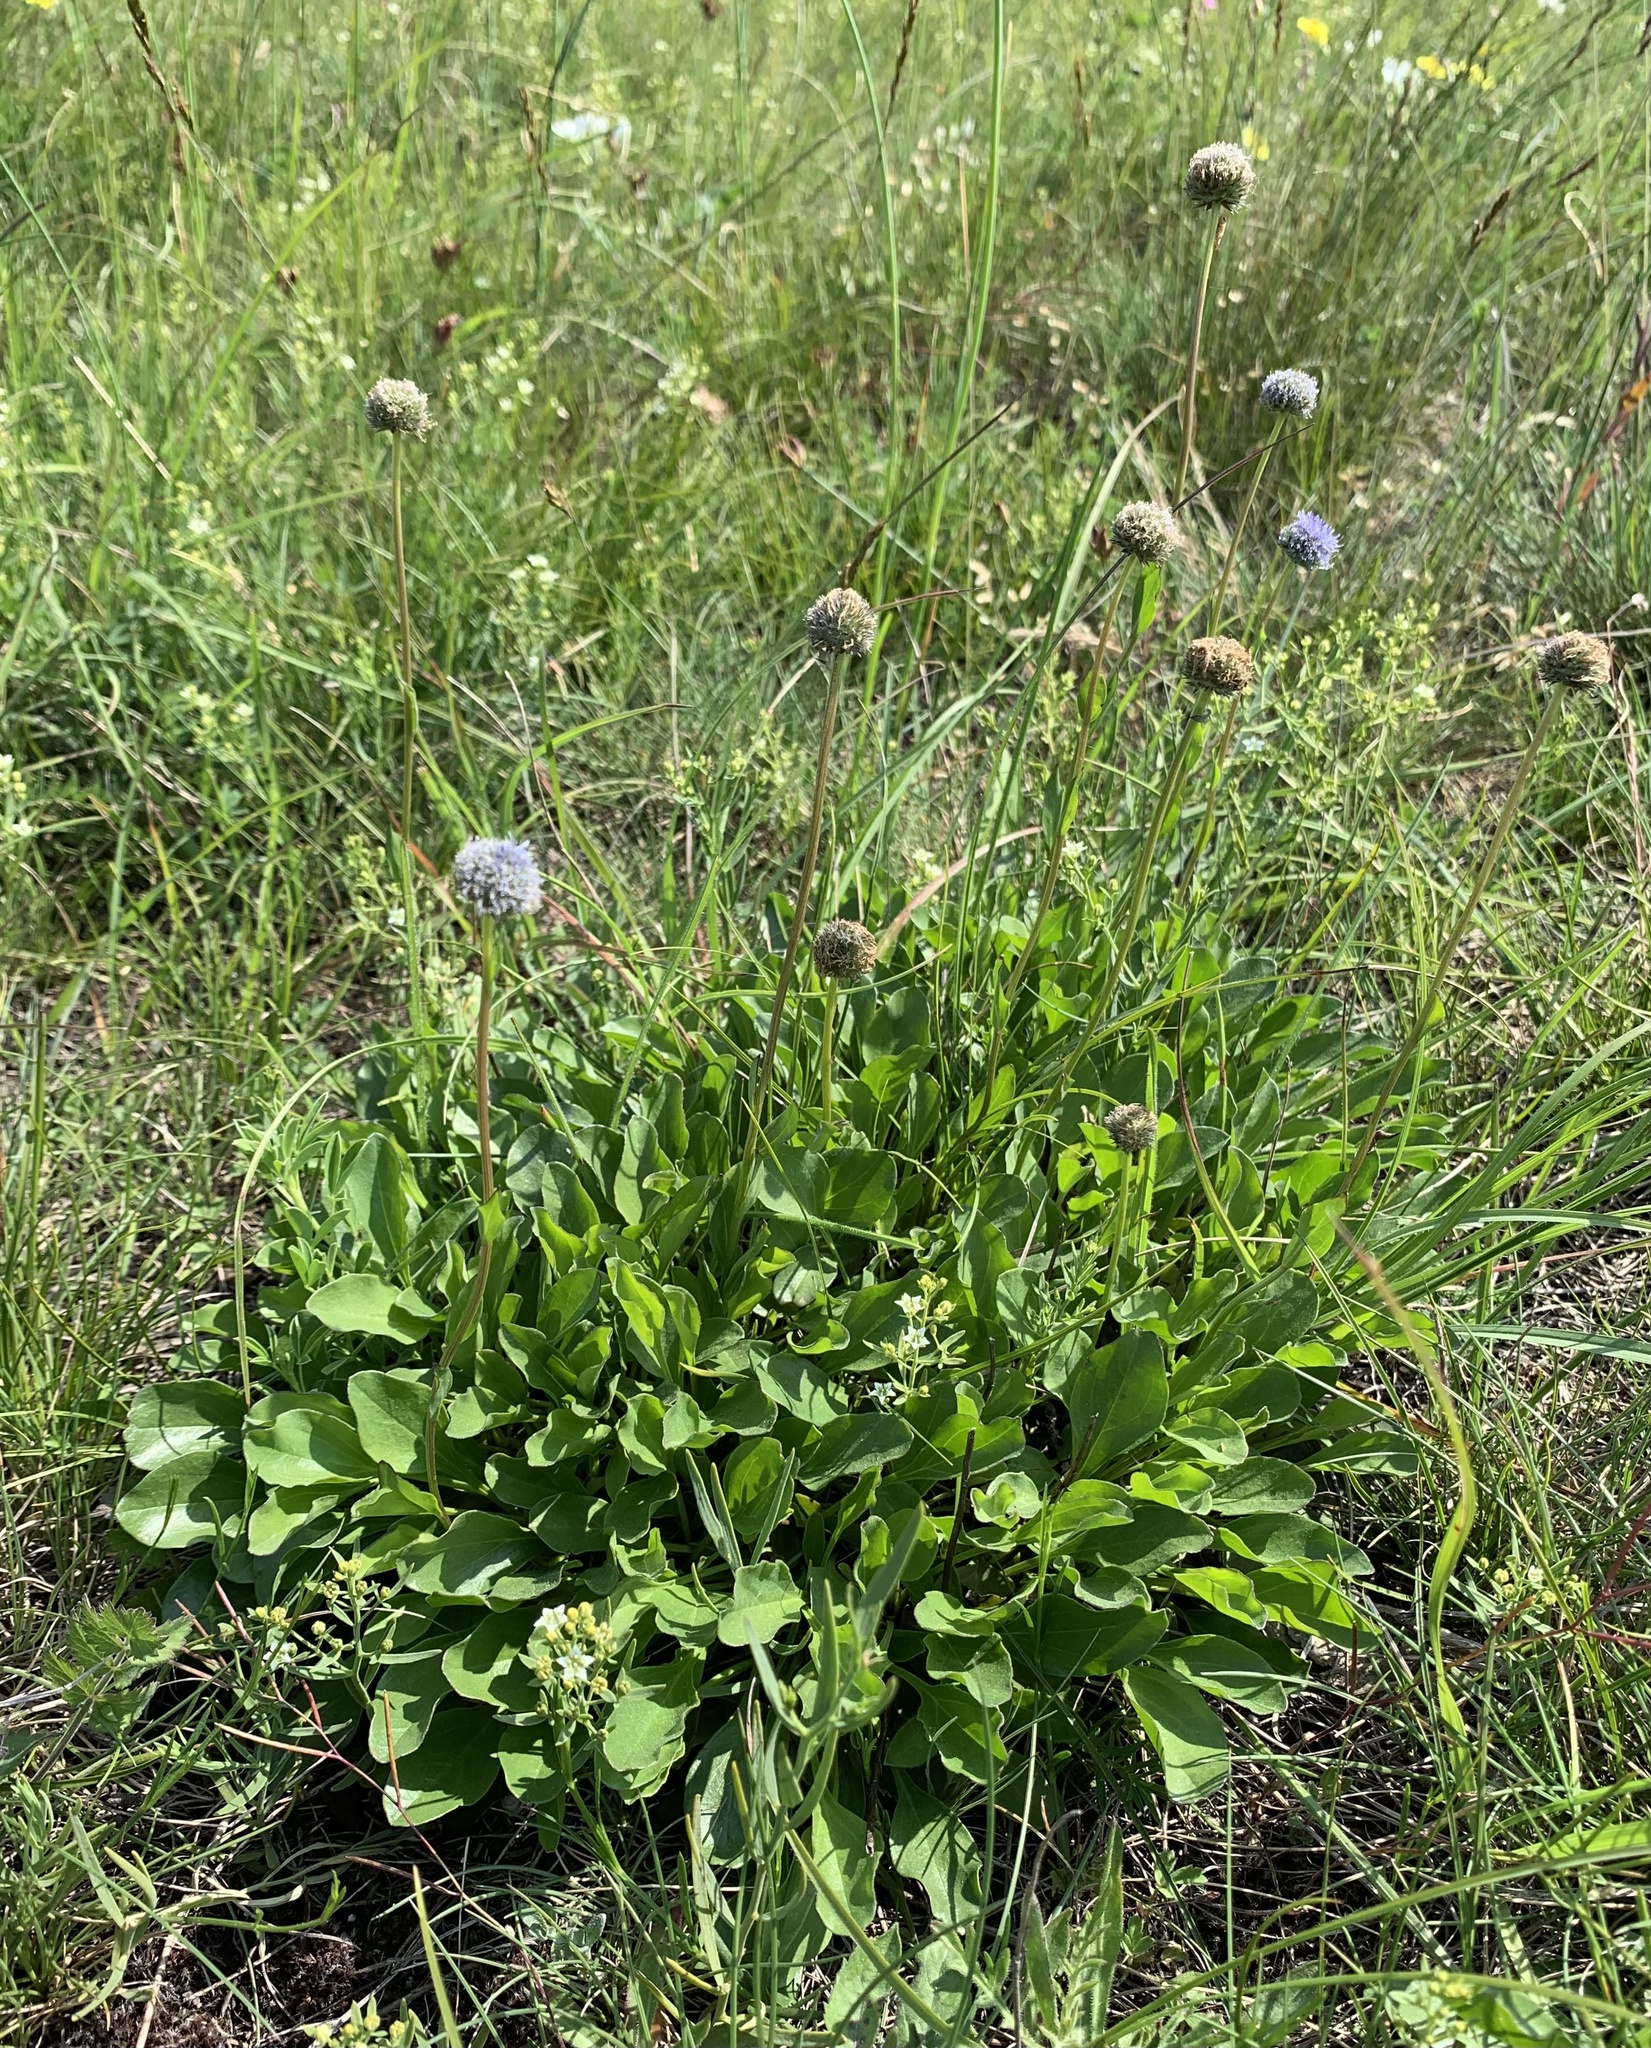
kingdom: Plantae
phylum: Tracheophyta
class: Magnoliopsida
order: Lamiales
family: Plantaginaceae
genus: Globularia
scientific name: Globularia bisnagarica
